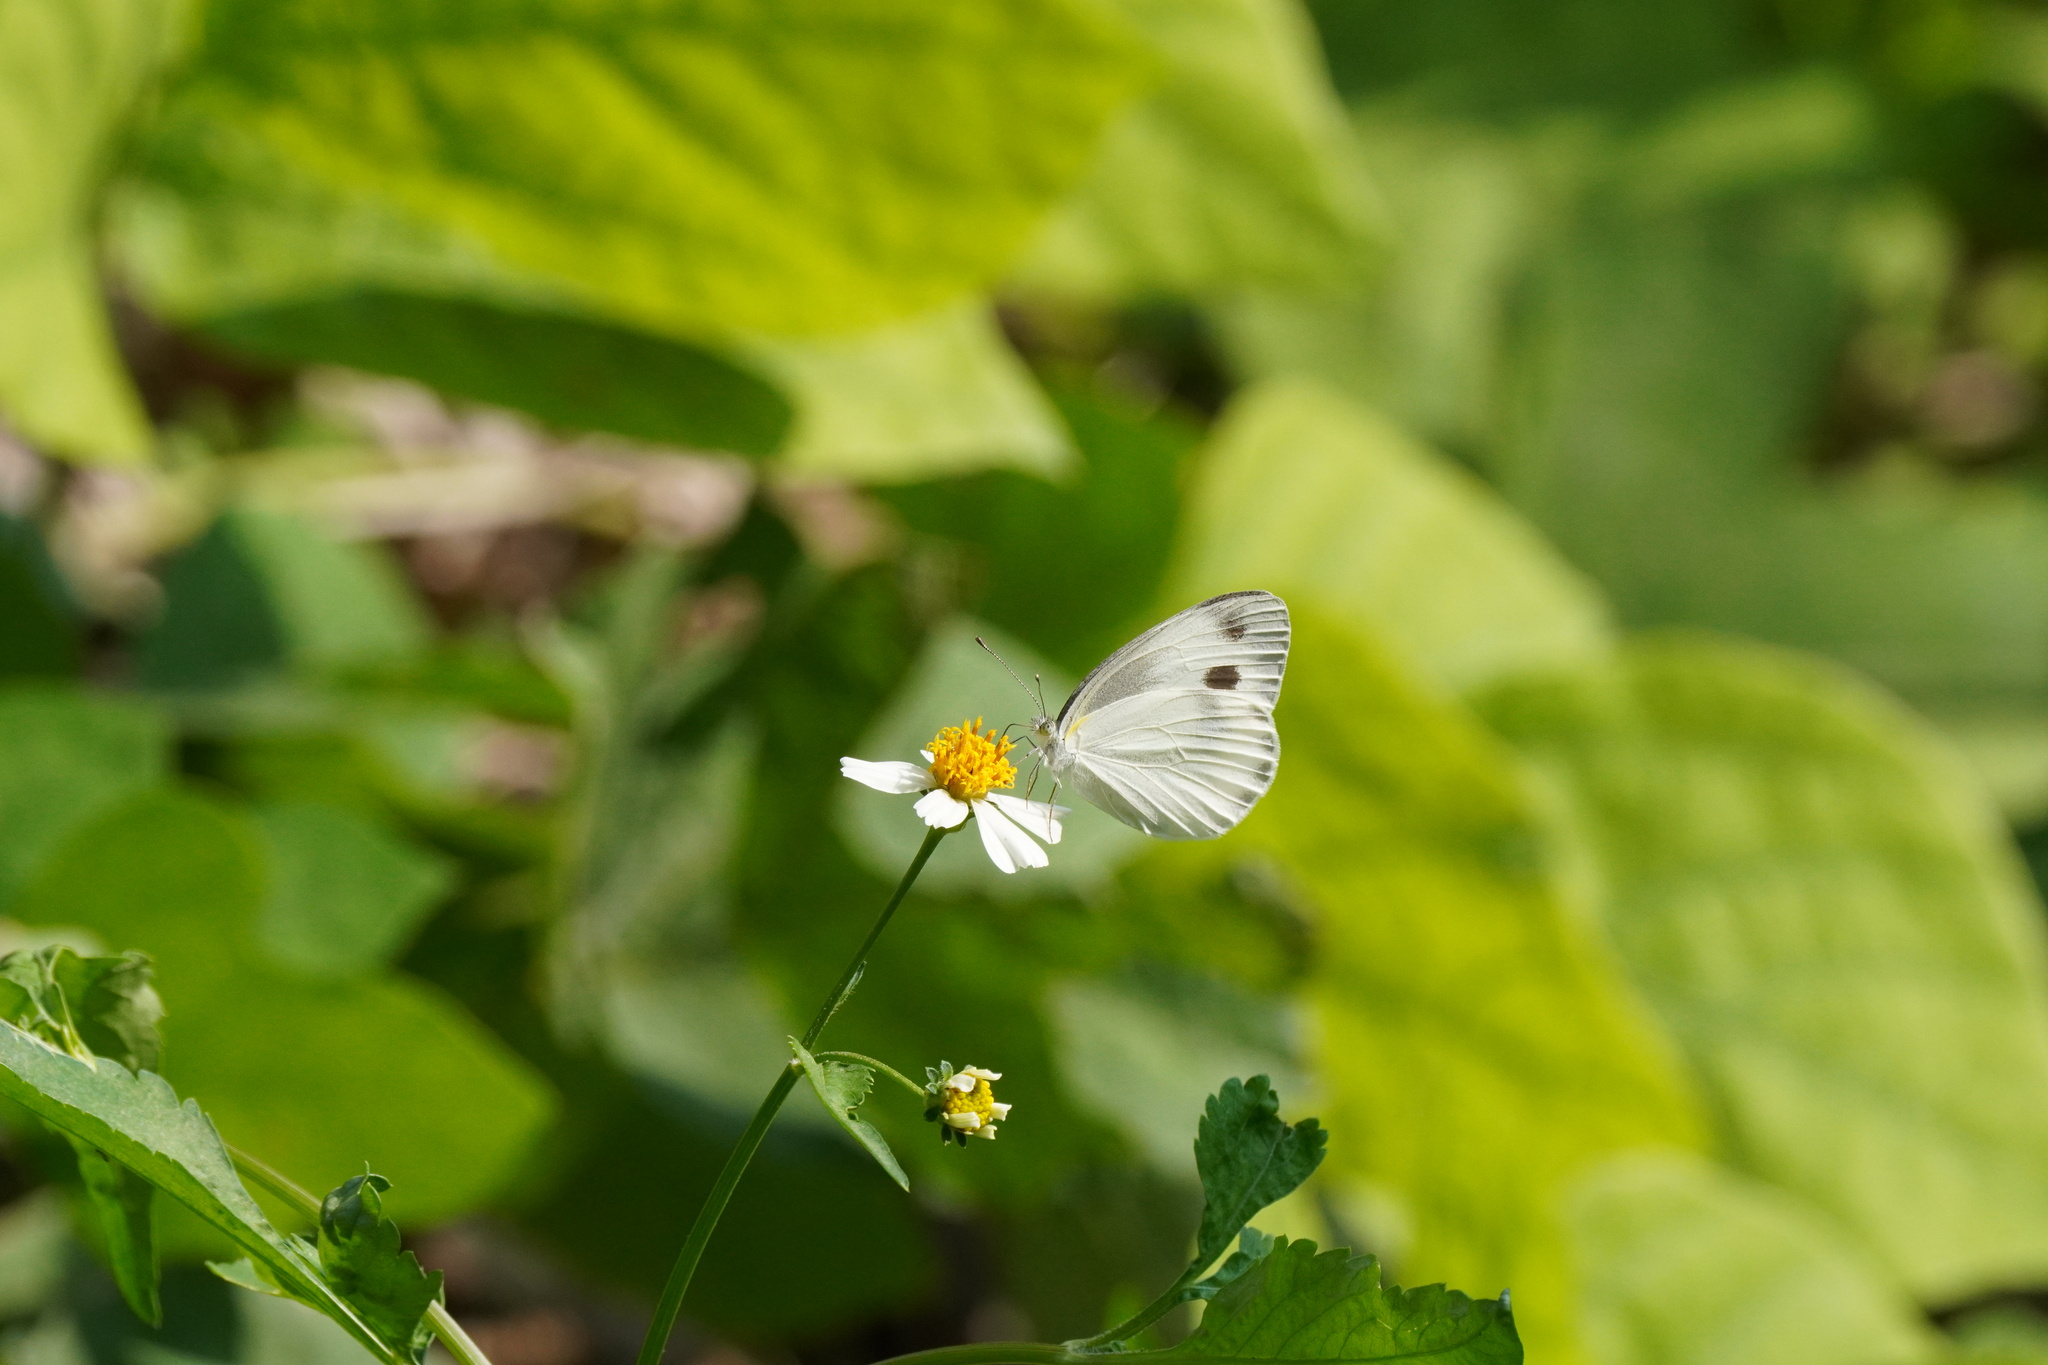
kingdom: Animalia
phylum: Arthropoda
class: Insecta
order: Lepidoptera
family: Pieridae
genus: Pieris
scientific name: Pieris canidia
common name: Indian cabbage white
